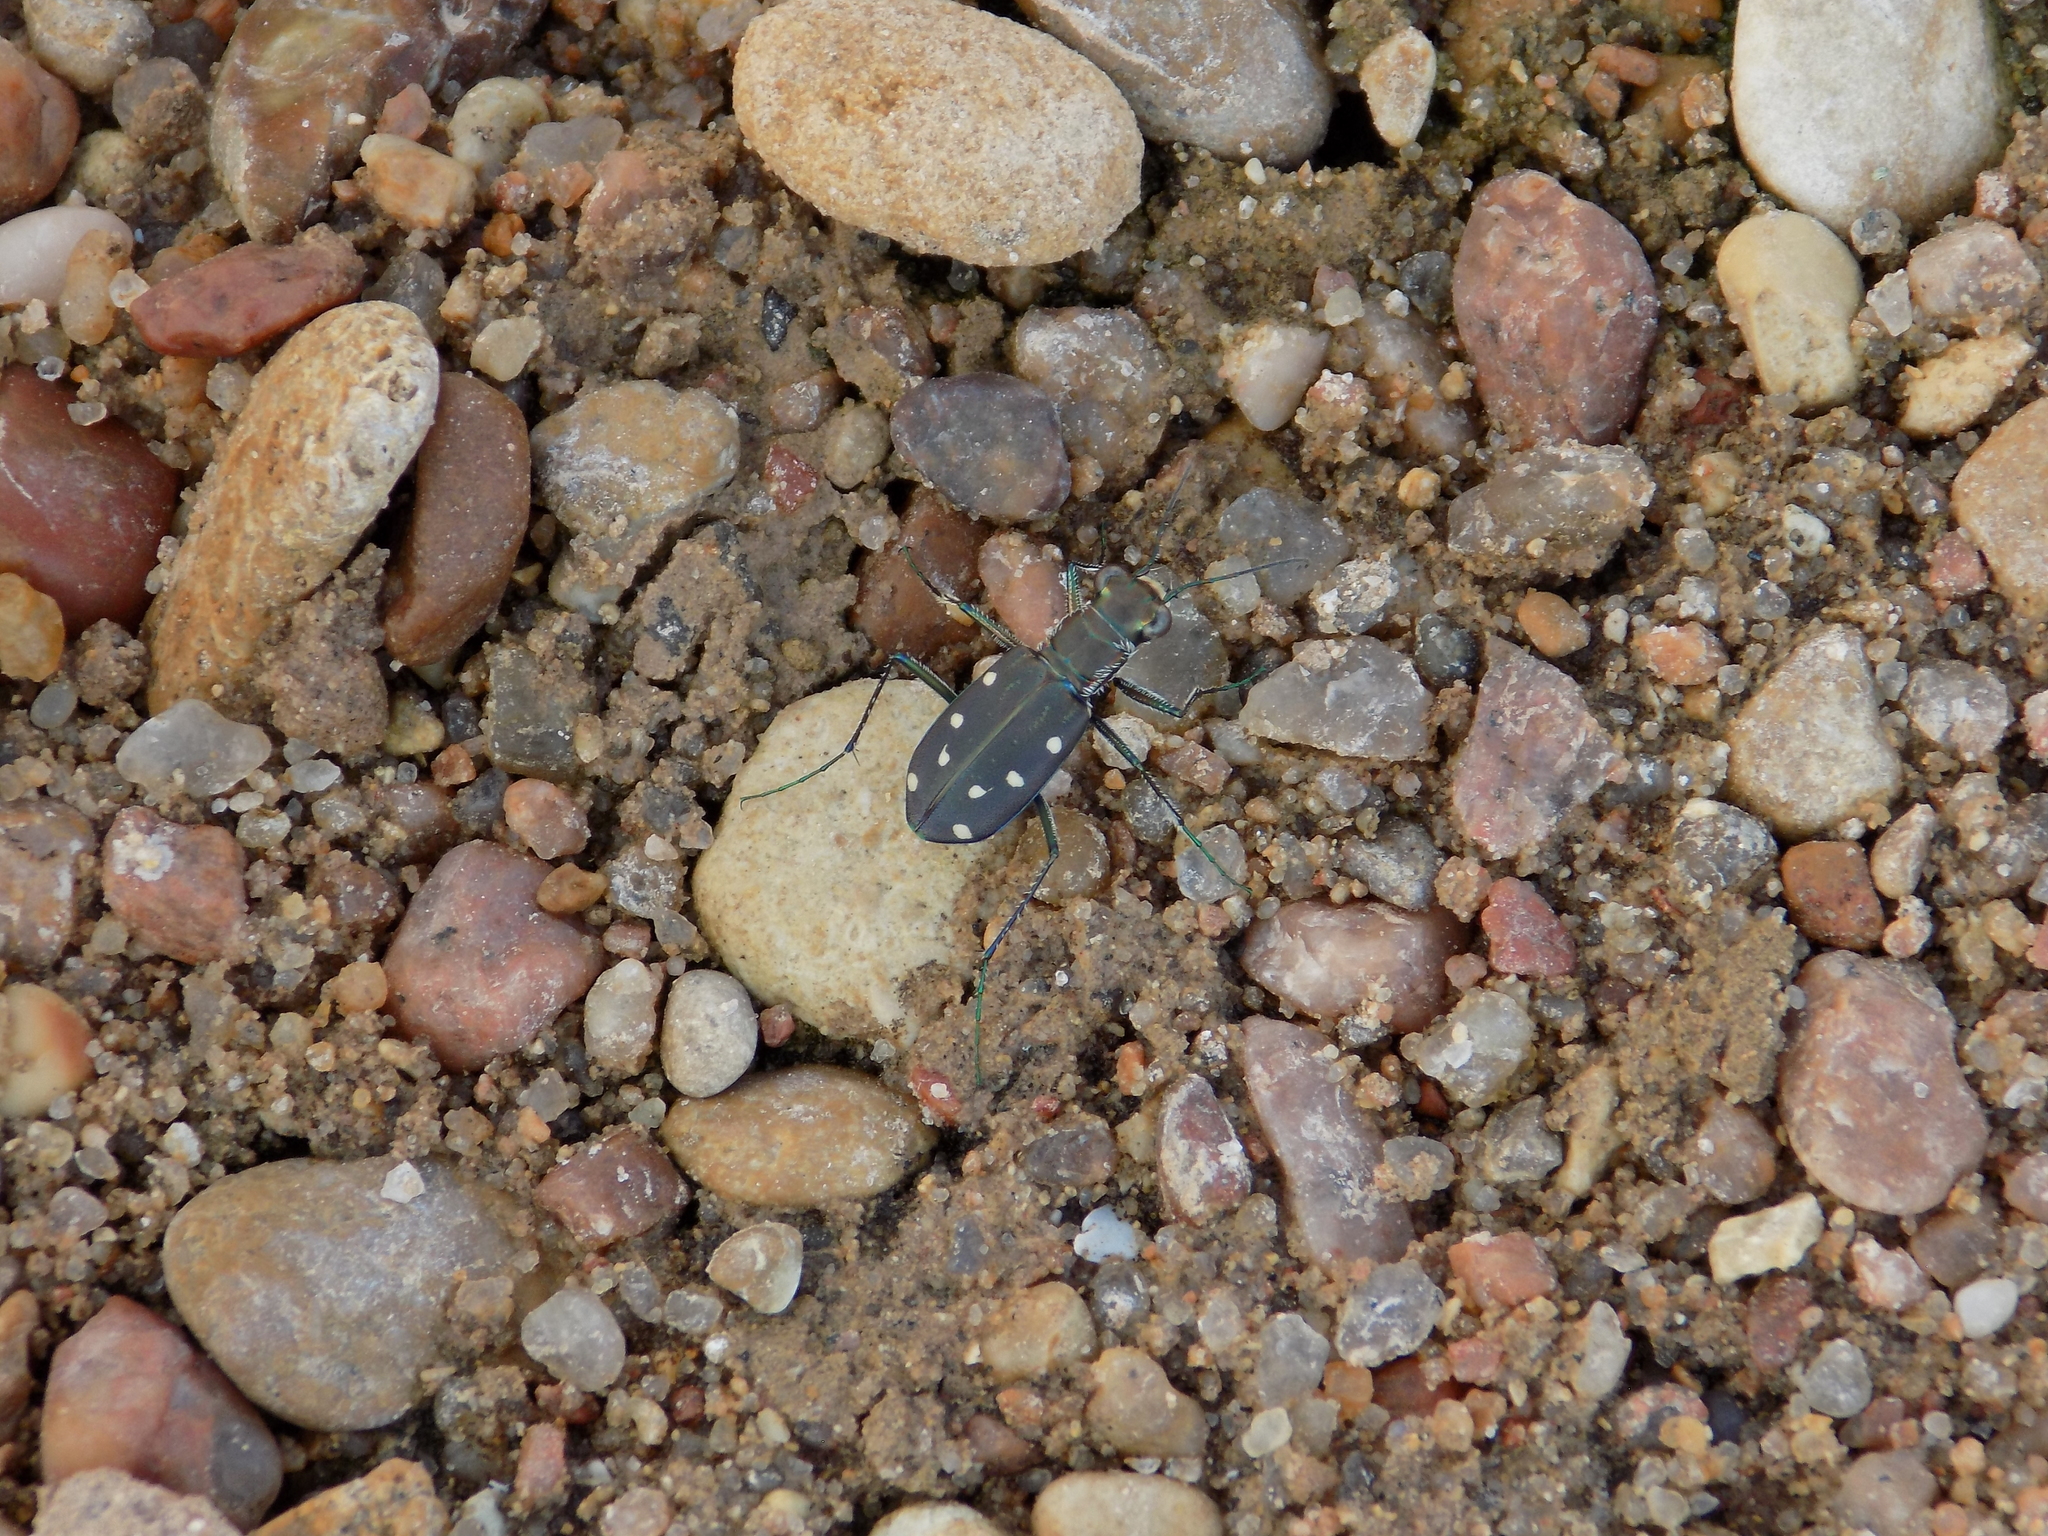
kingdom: Animalia
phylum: Arthropoda
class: Insecta
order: Coleoptera
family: Carabidae
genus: Cicindela
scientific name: Cicindela ocellata
